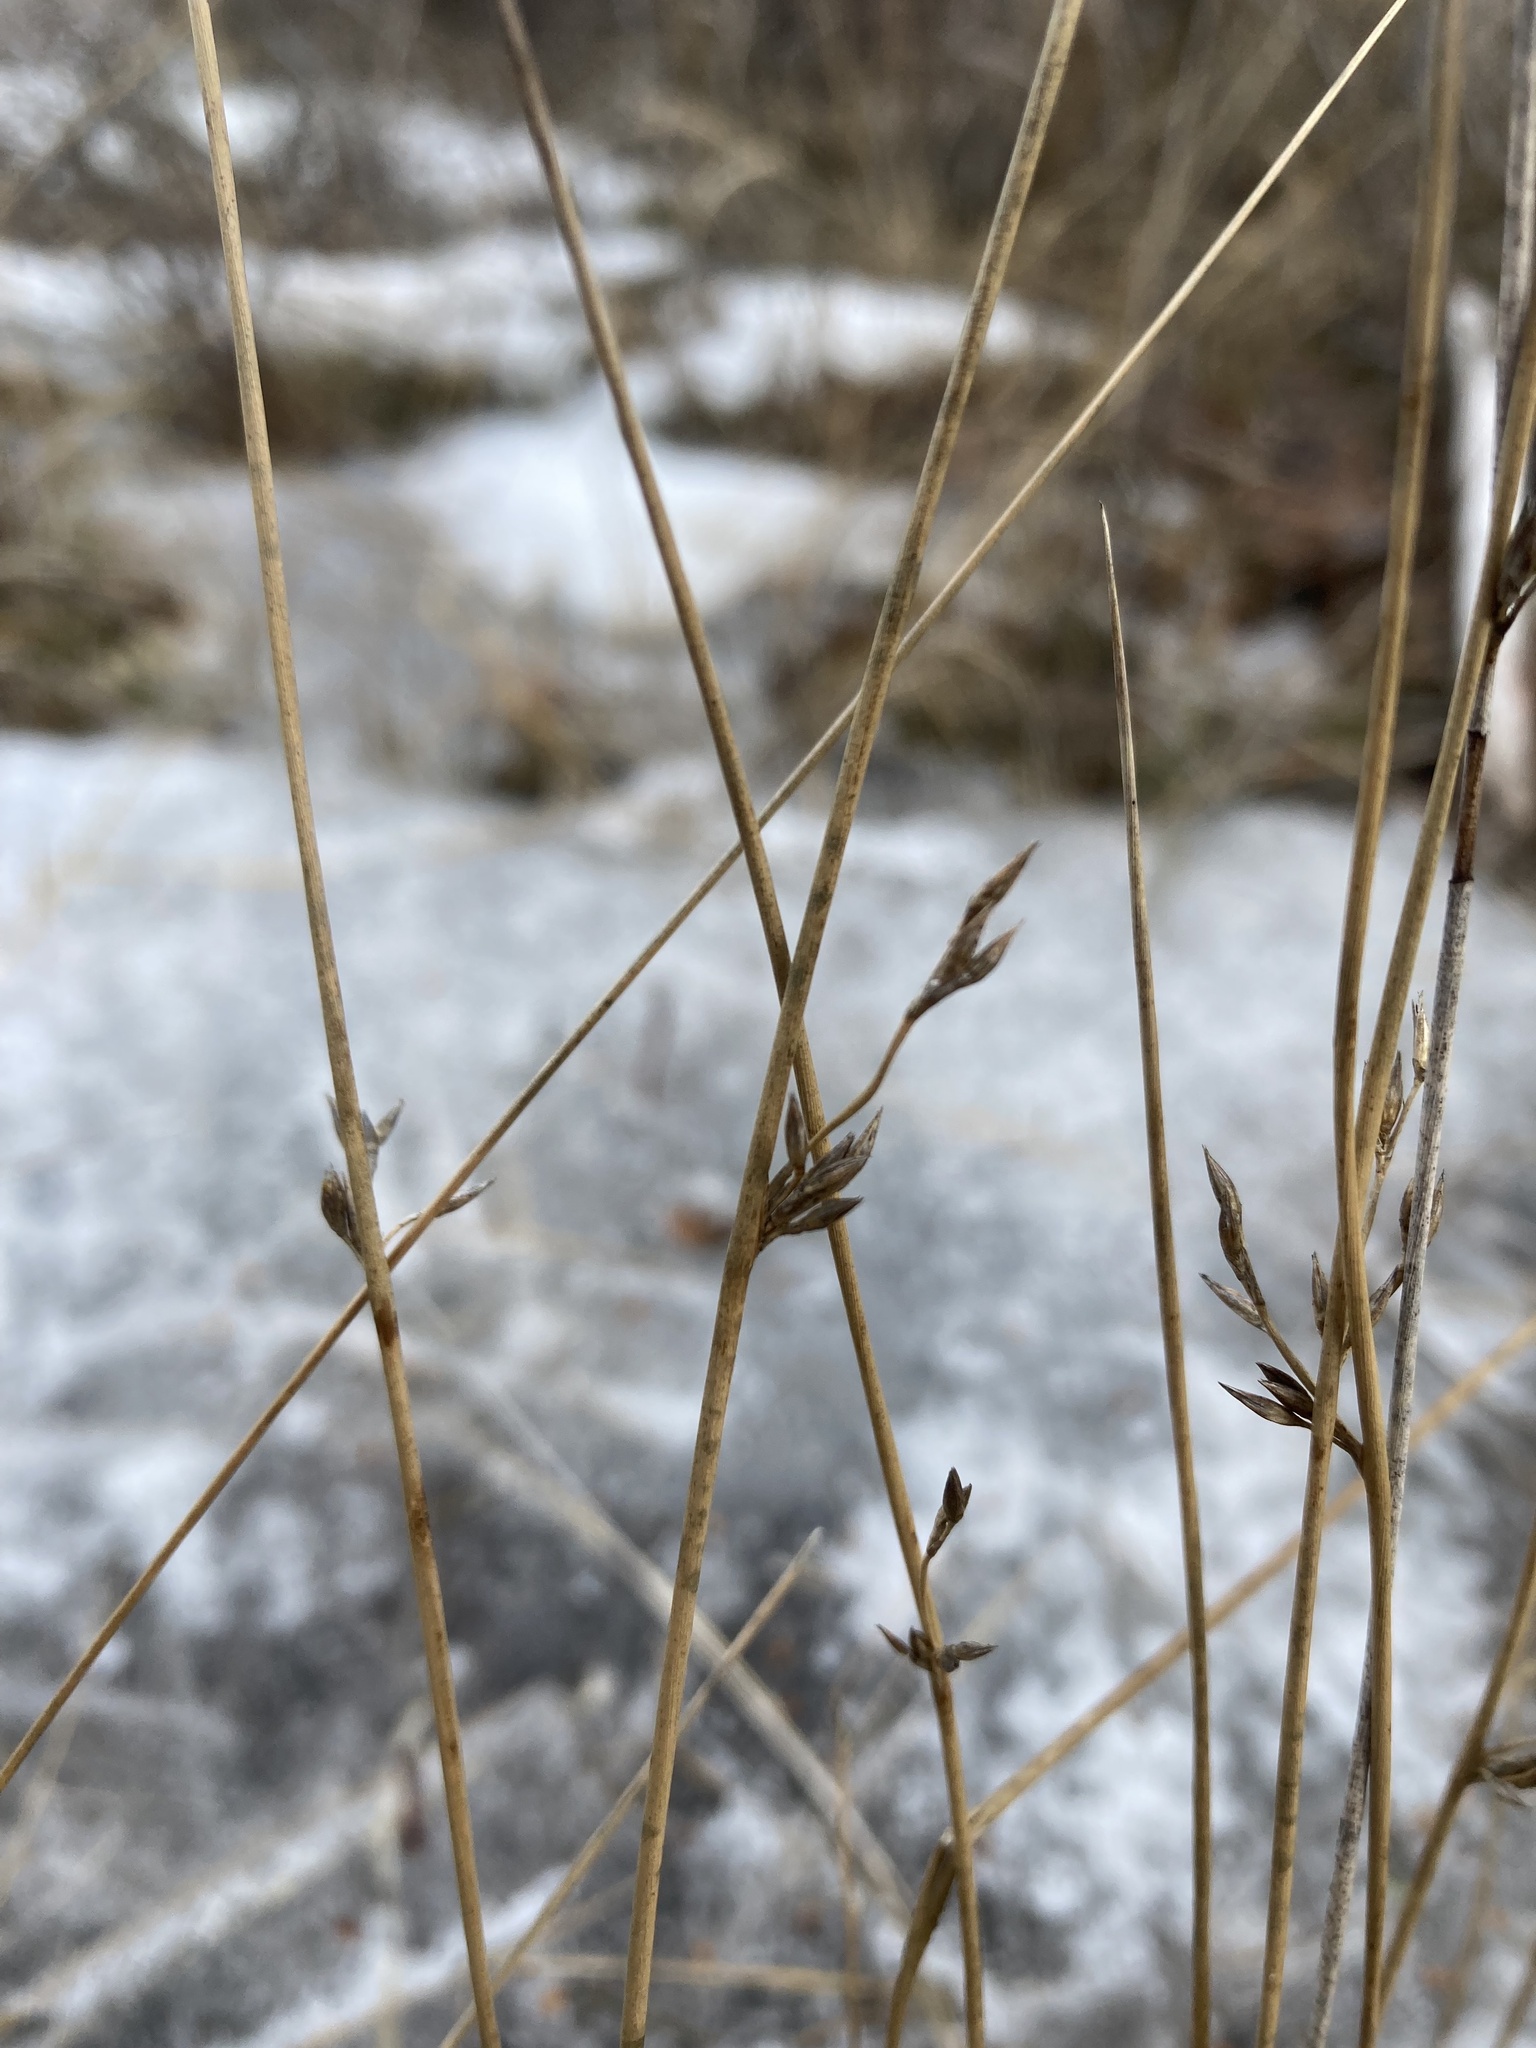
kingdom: Plantae
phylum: Tracheophyta
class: Liliopsida
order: Poales
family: Juncaceae
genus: Juncus
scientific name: Juncus balticus
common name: Baltic rush
